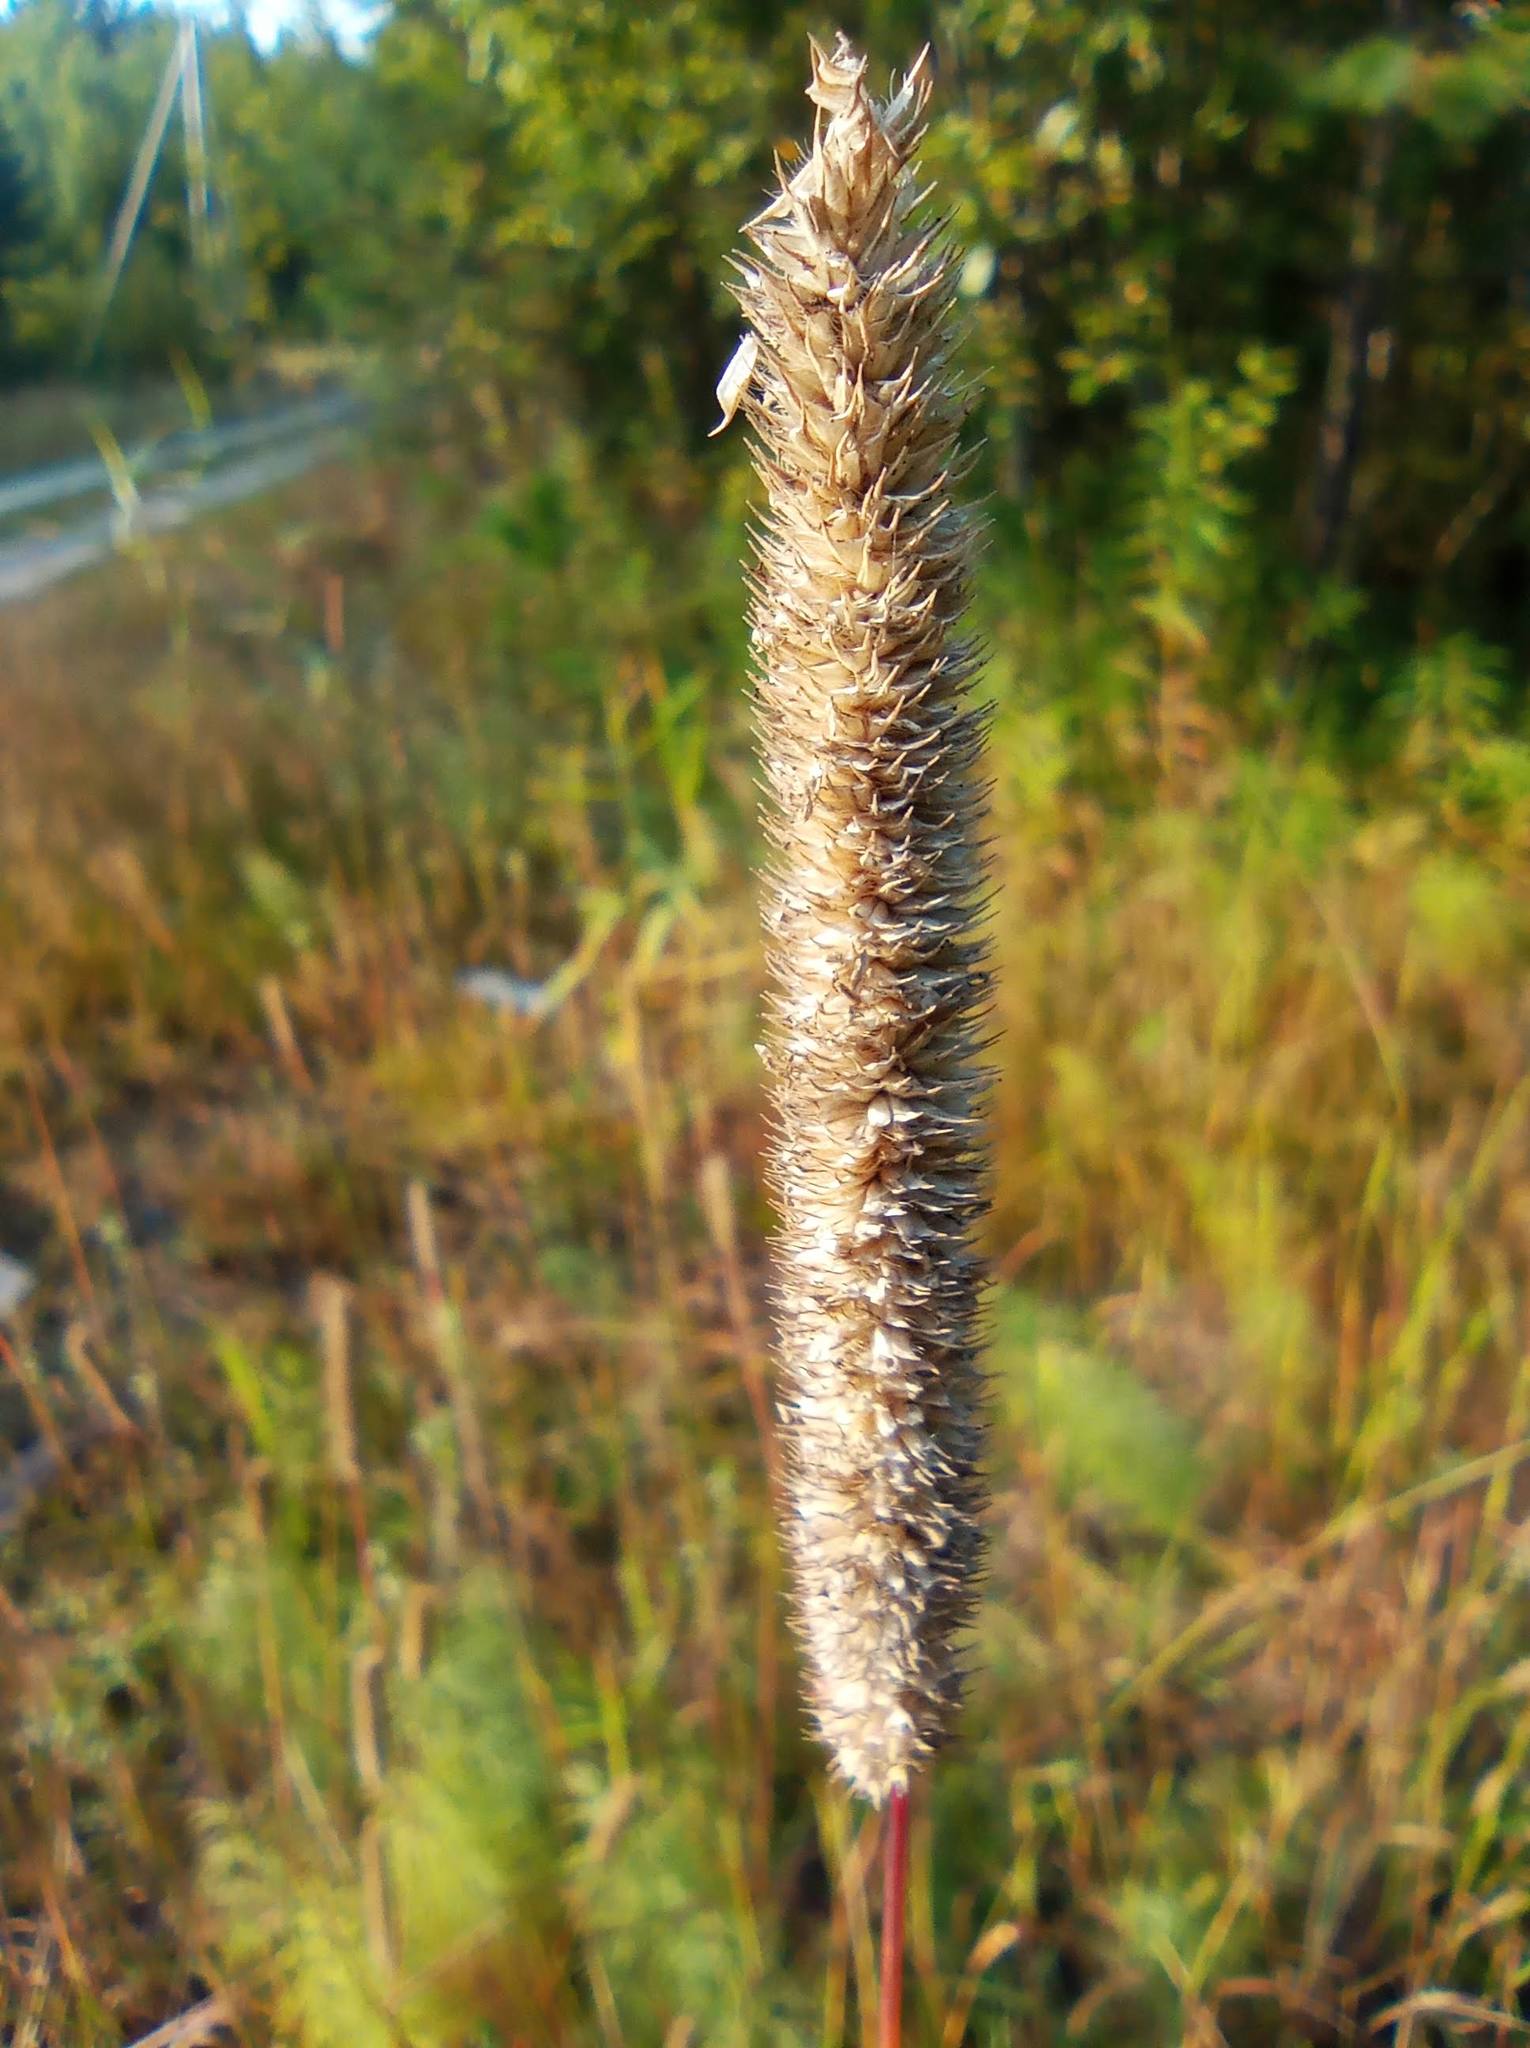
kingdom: Plantae
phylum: Tracheophyta
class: Liliopsida
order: Poales
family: Poaceae
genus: Phleum
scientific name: Phleum pratense
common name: Timothy grass
